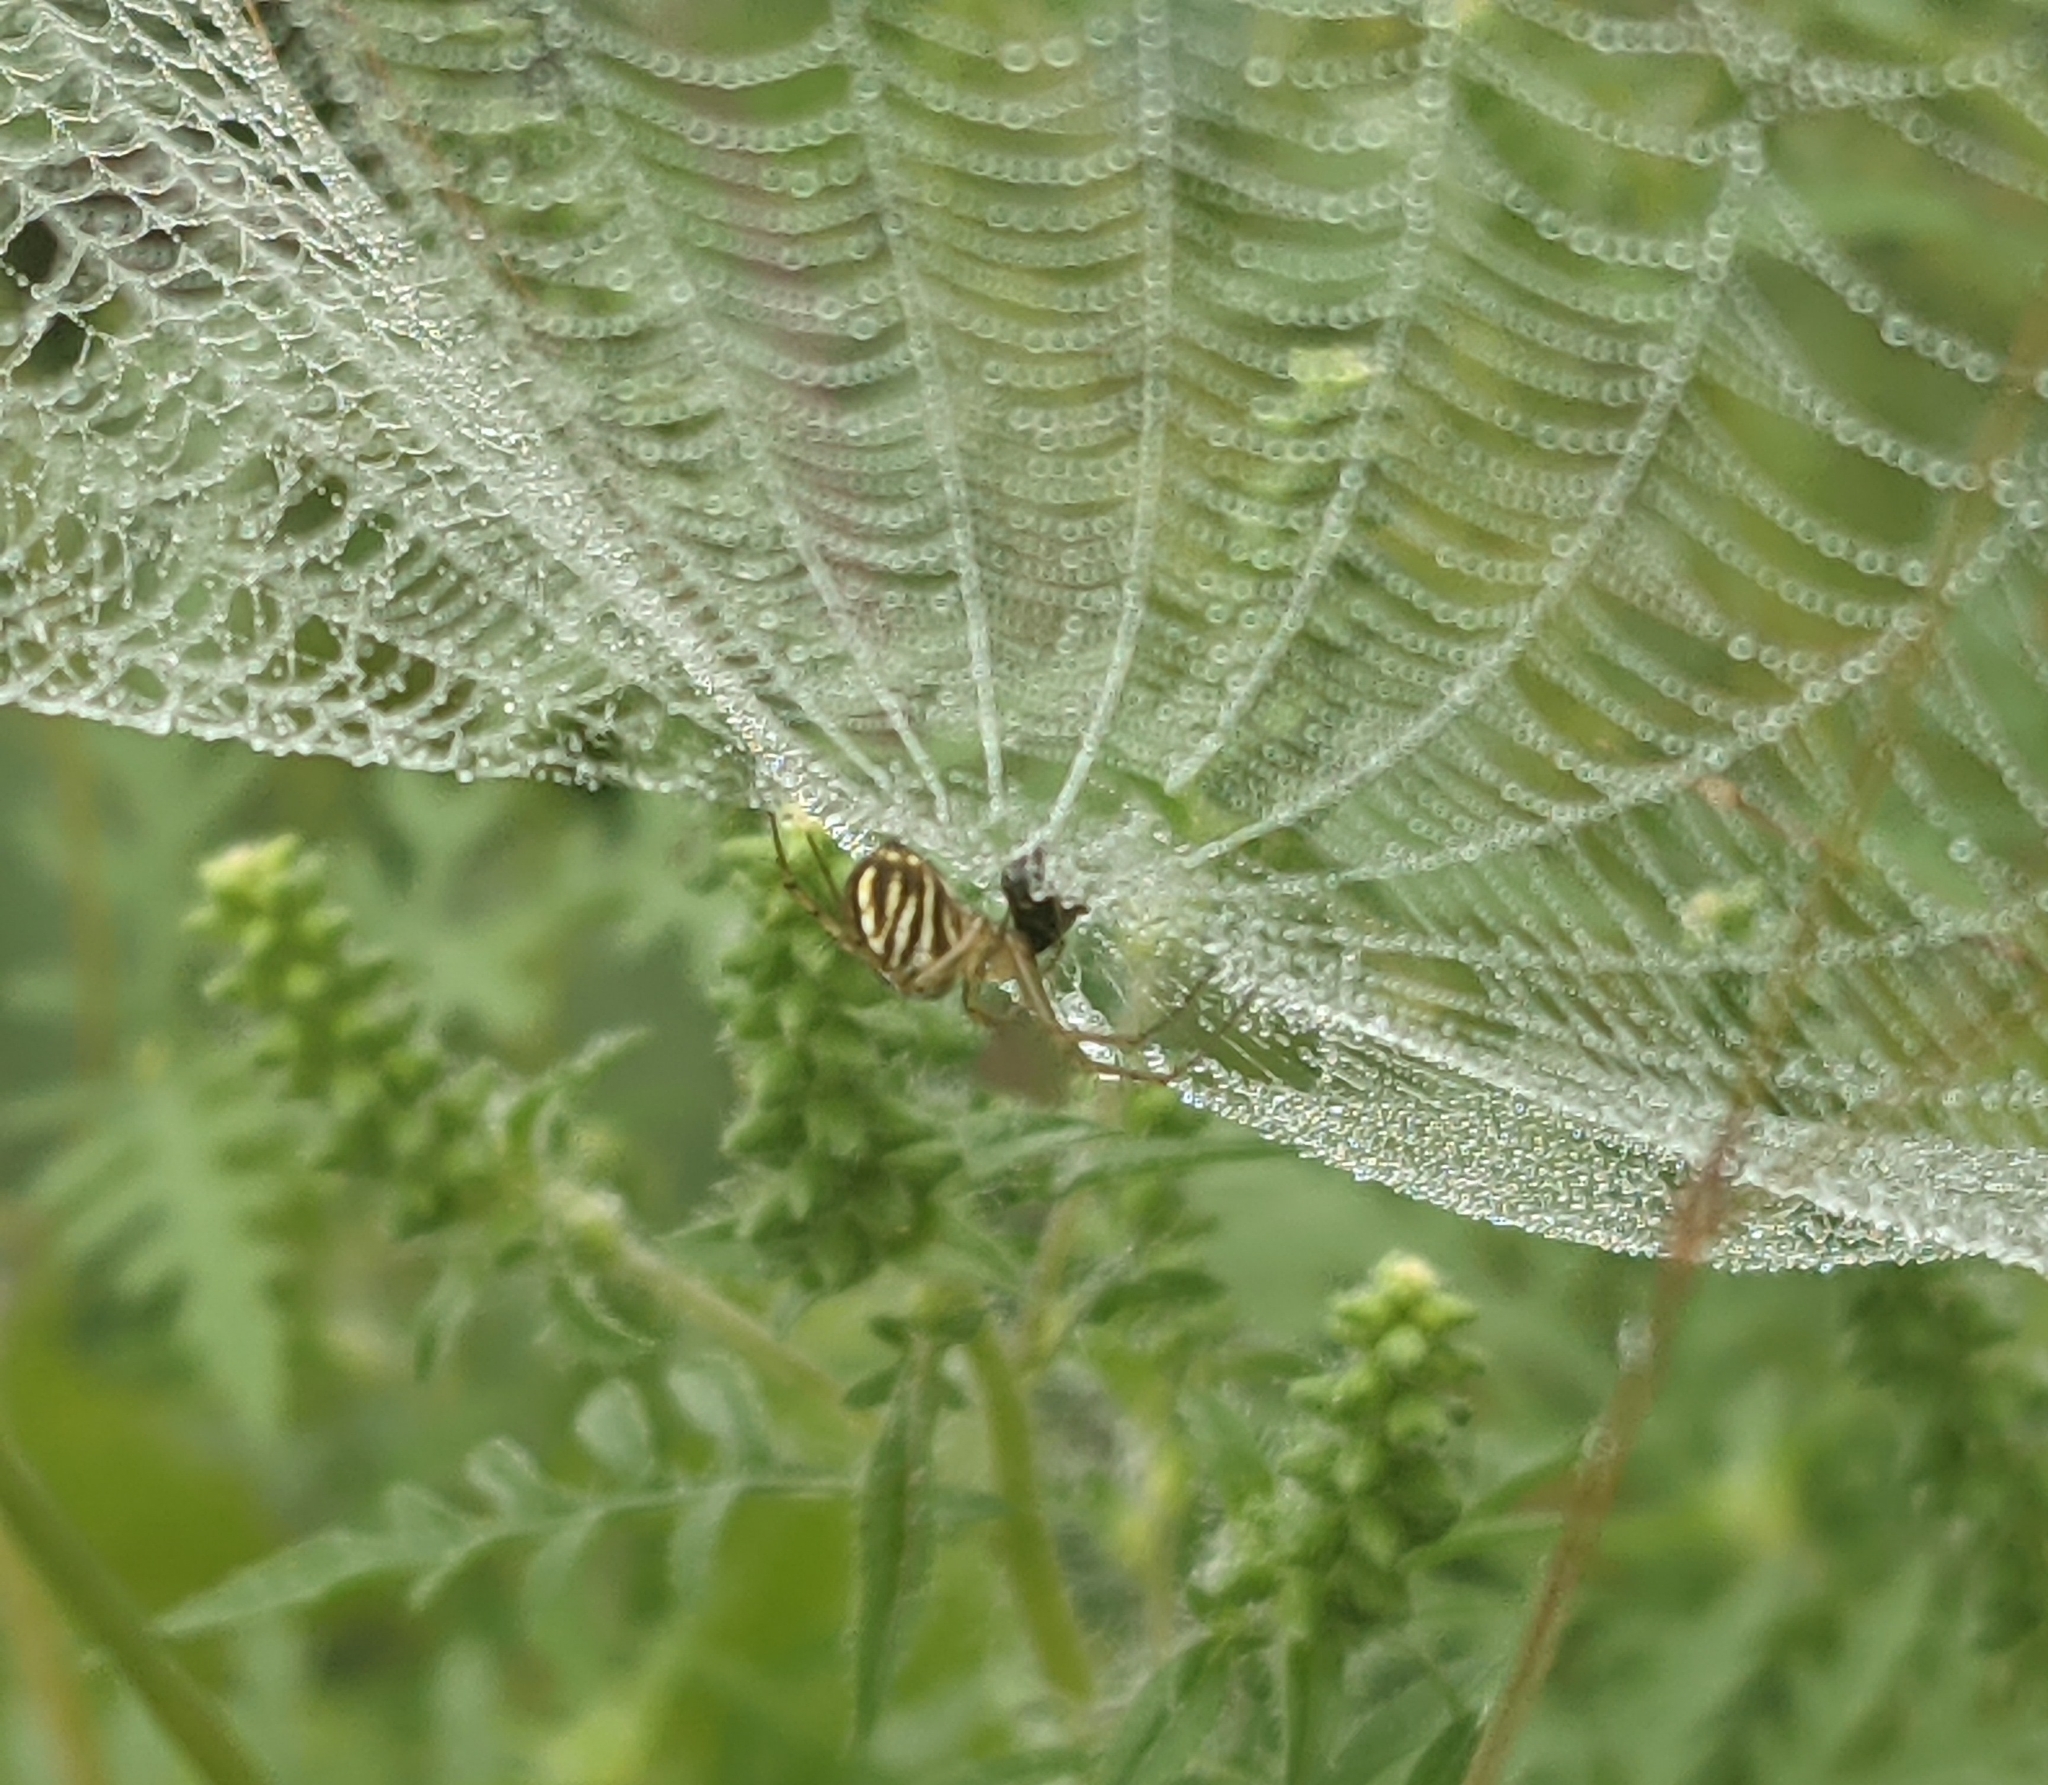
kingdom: Animalia
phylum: Arthropoda
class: Arachnida
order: Araneae
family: Araneidae
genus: Mangora
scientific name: Mangora gibberosa
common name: Lined orbweaver
